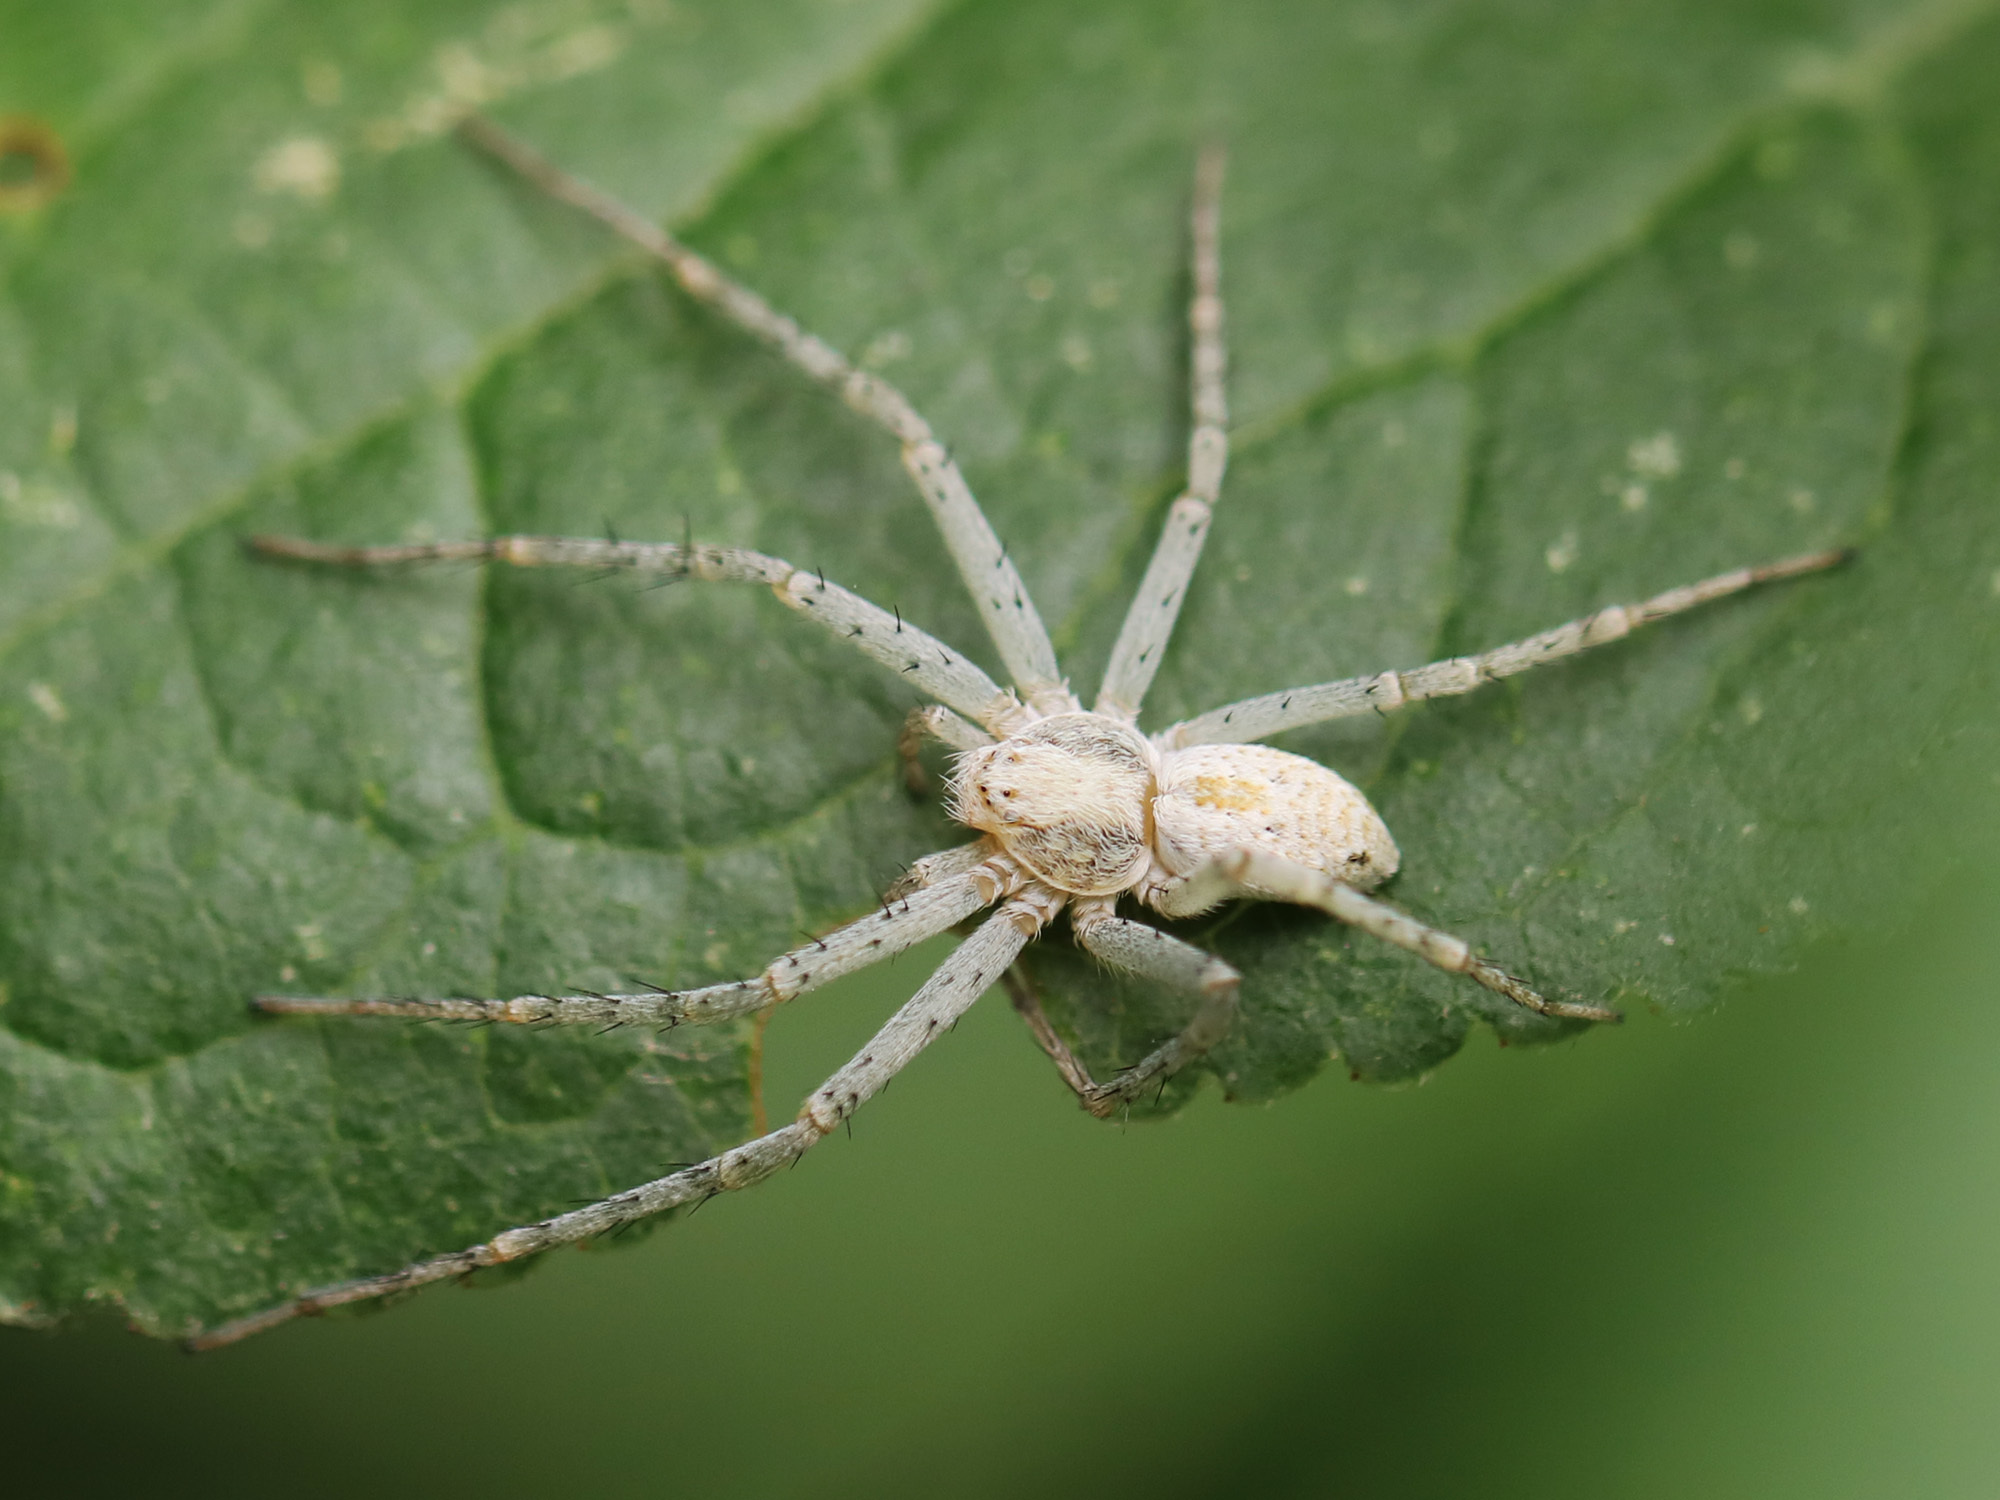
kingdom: Animalia
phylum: Arthropoda
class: Arachnida
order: Araneae
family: Philodromidae
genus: Philodromus
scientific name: Philodromus longipalpis
